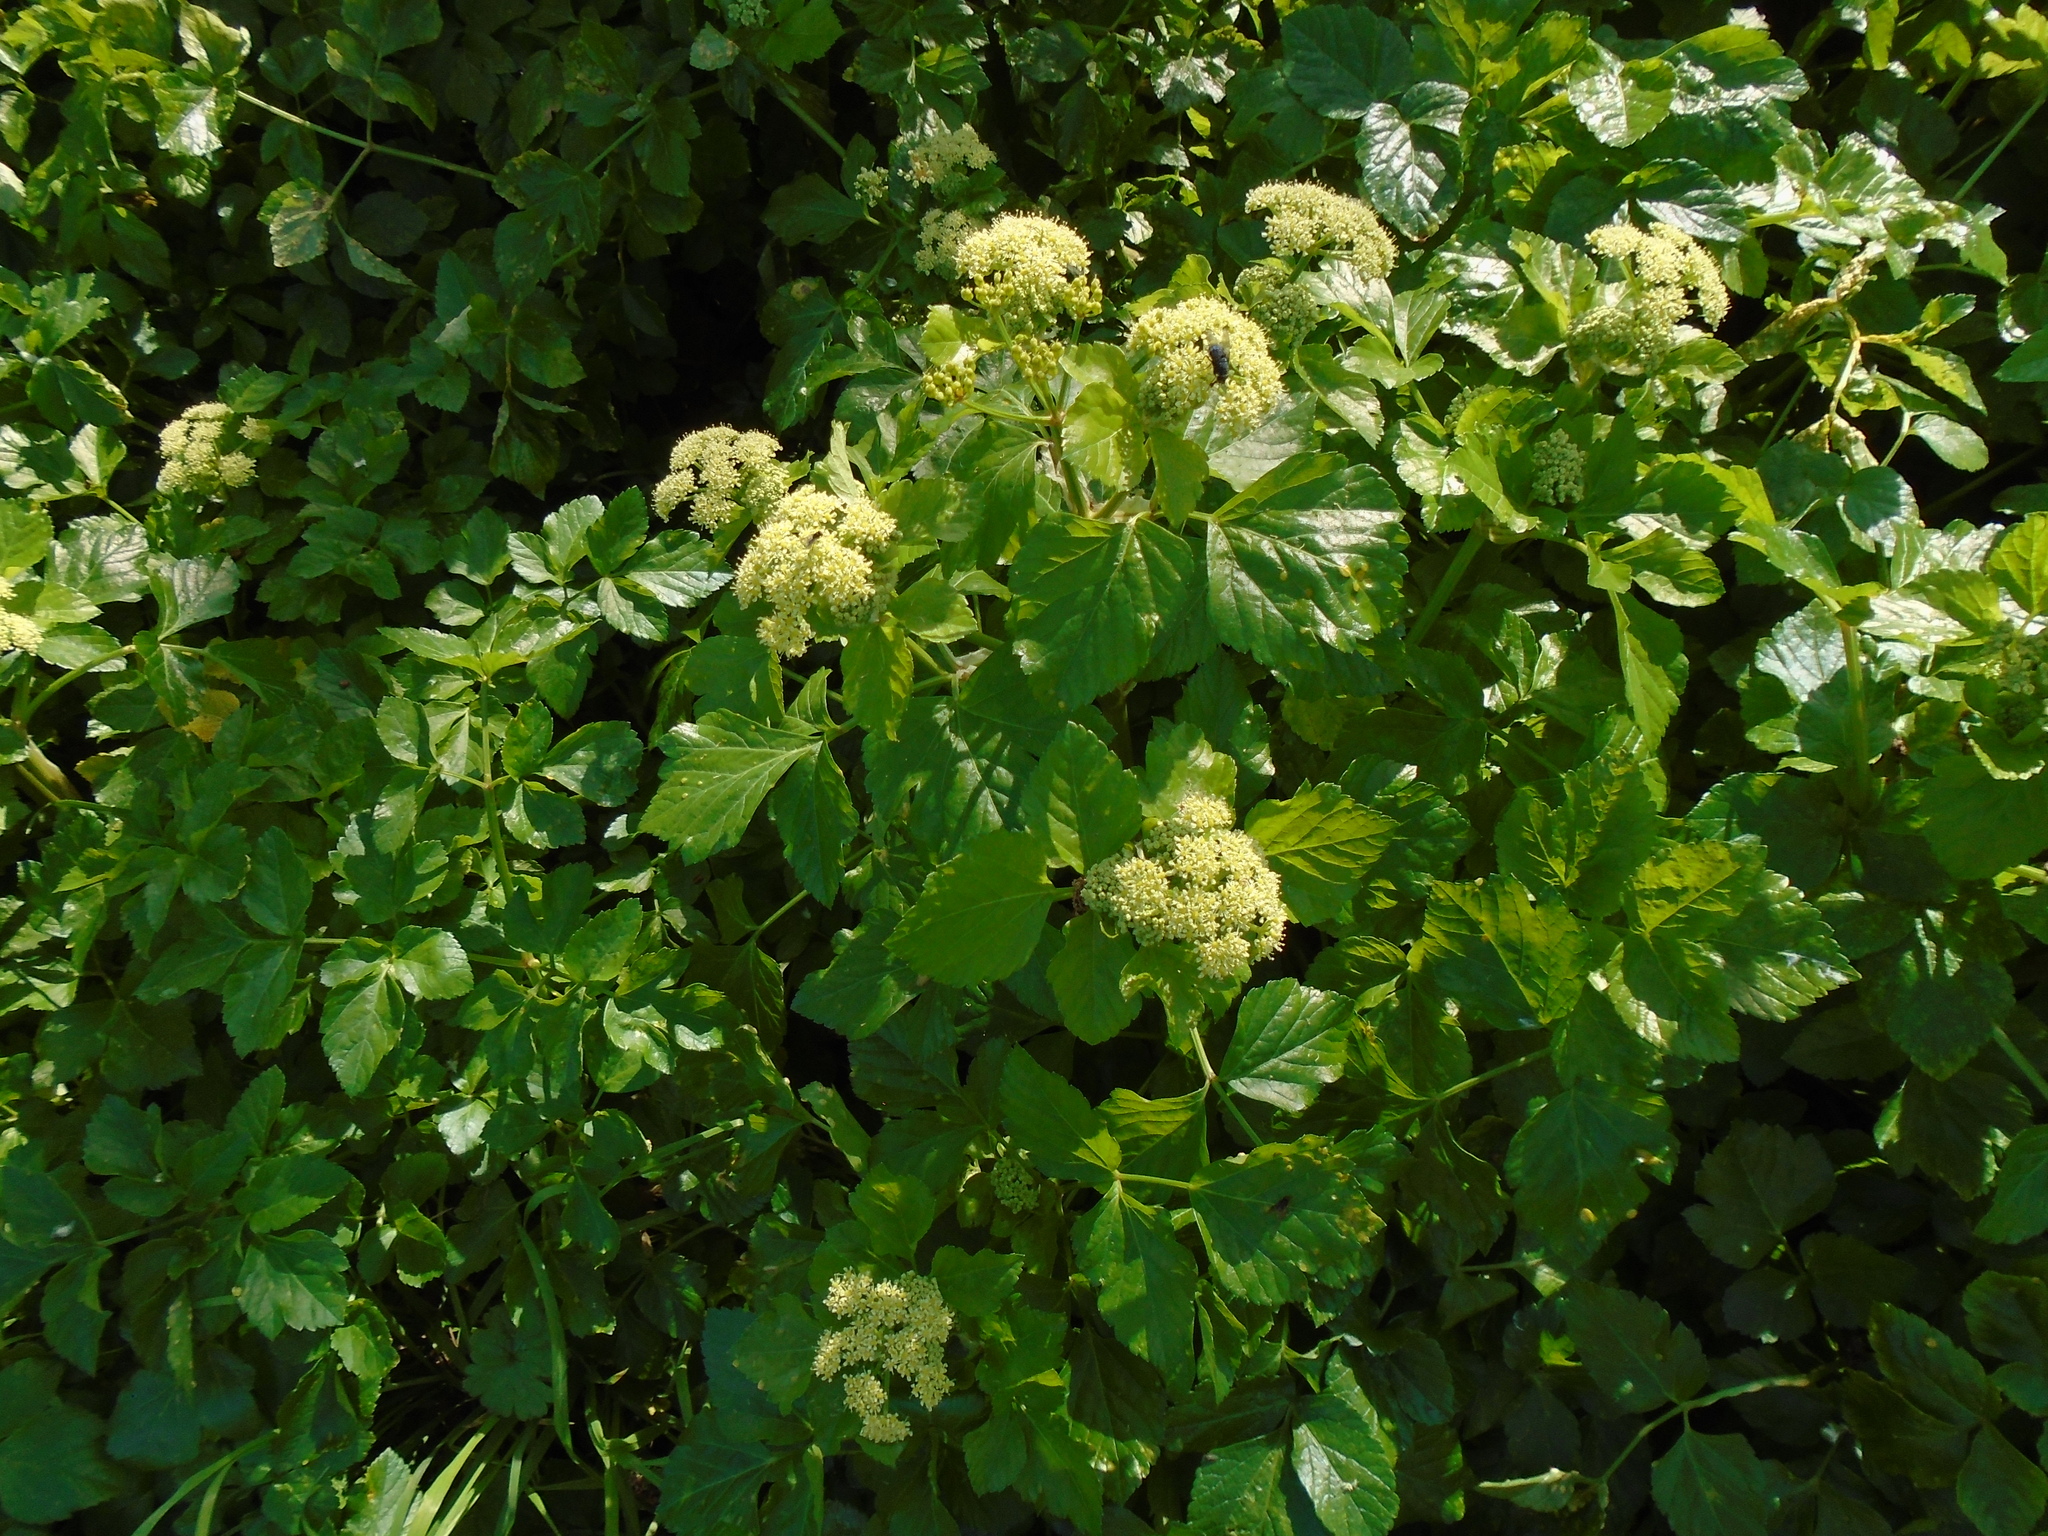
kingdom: Plantae
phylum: Tracheophyta
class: Magnoliopsida
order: Apiales
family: Apiaceae
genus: Smyrnium
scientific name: Smyrnium olusatrum
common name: Alexanders
